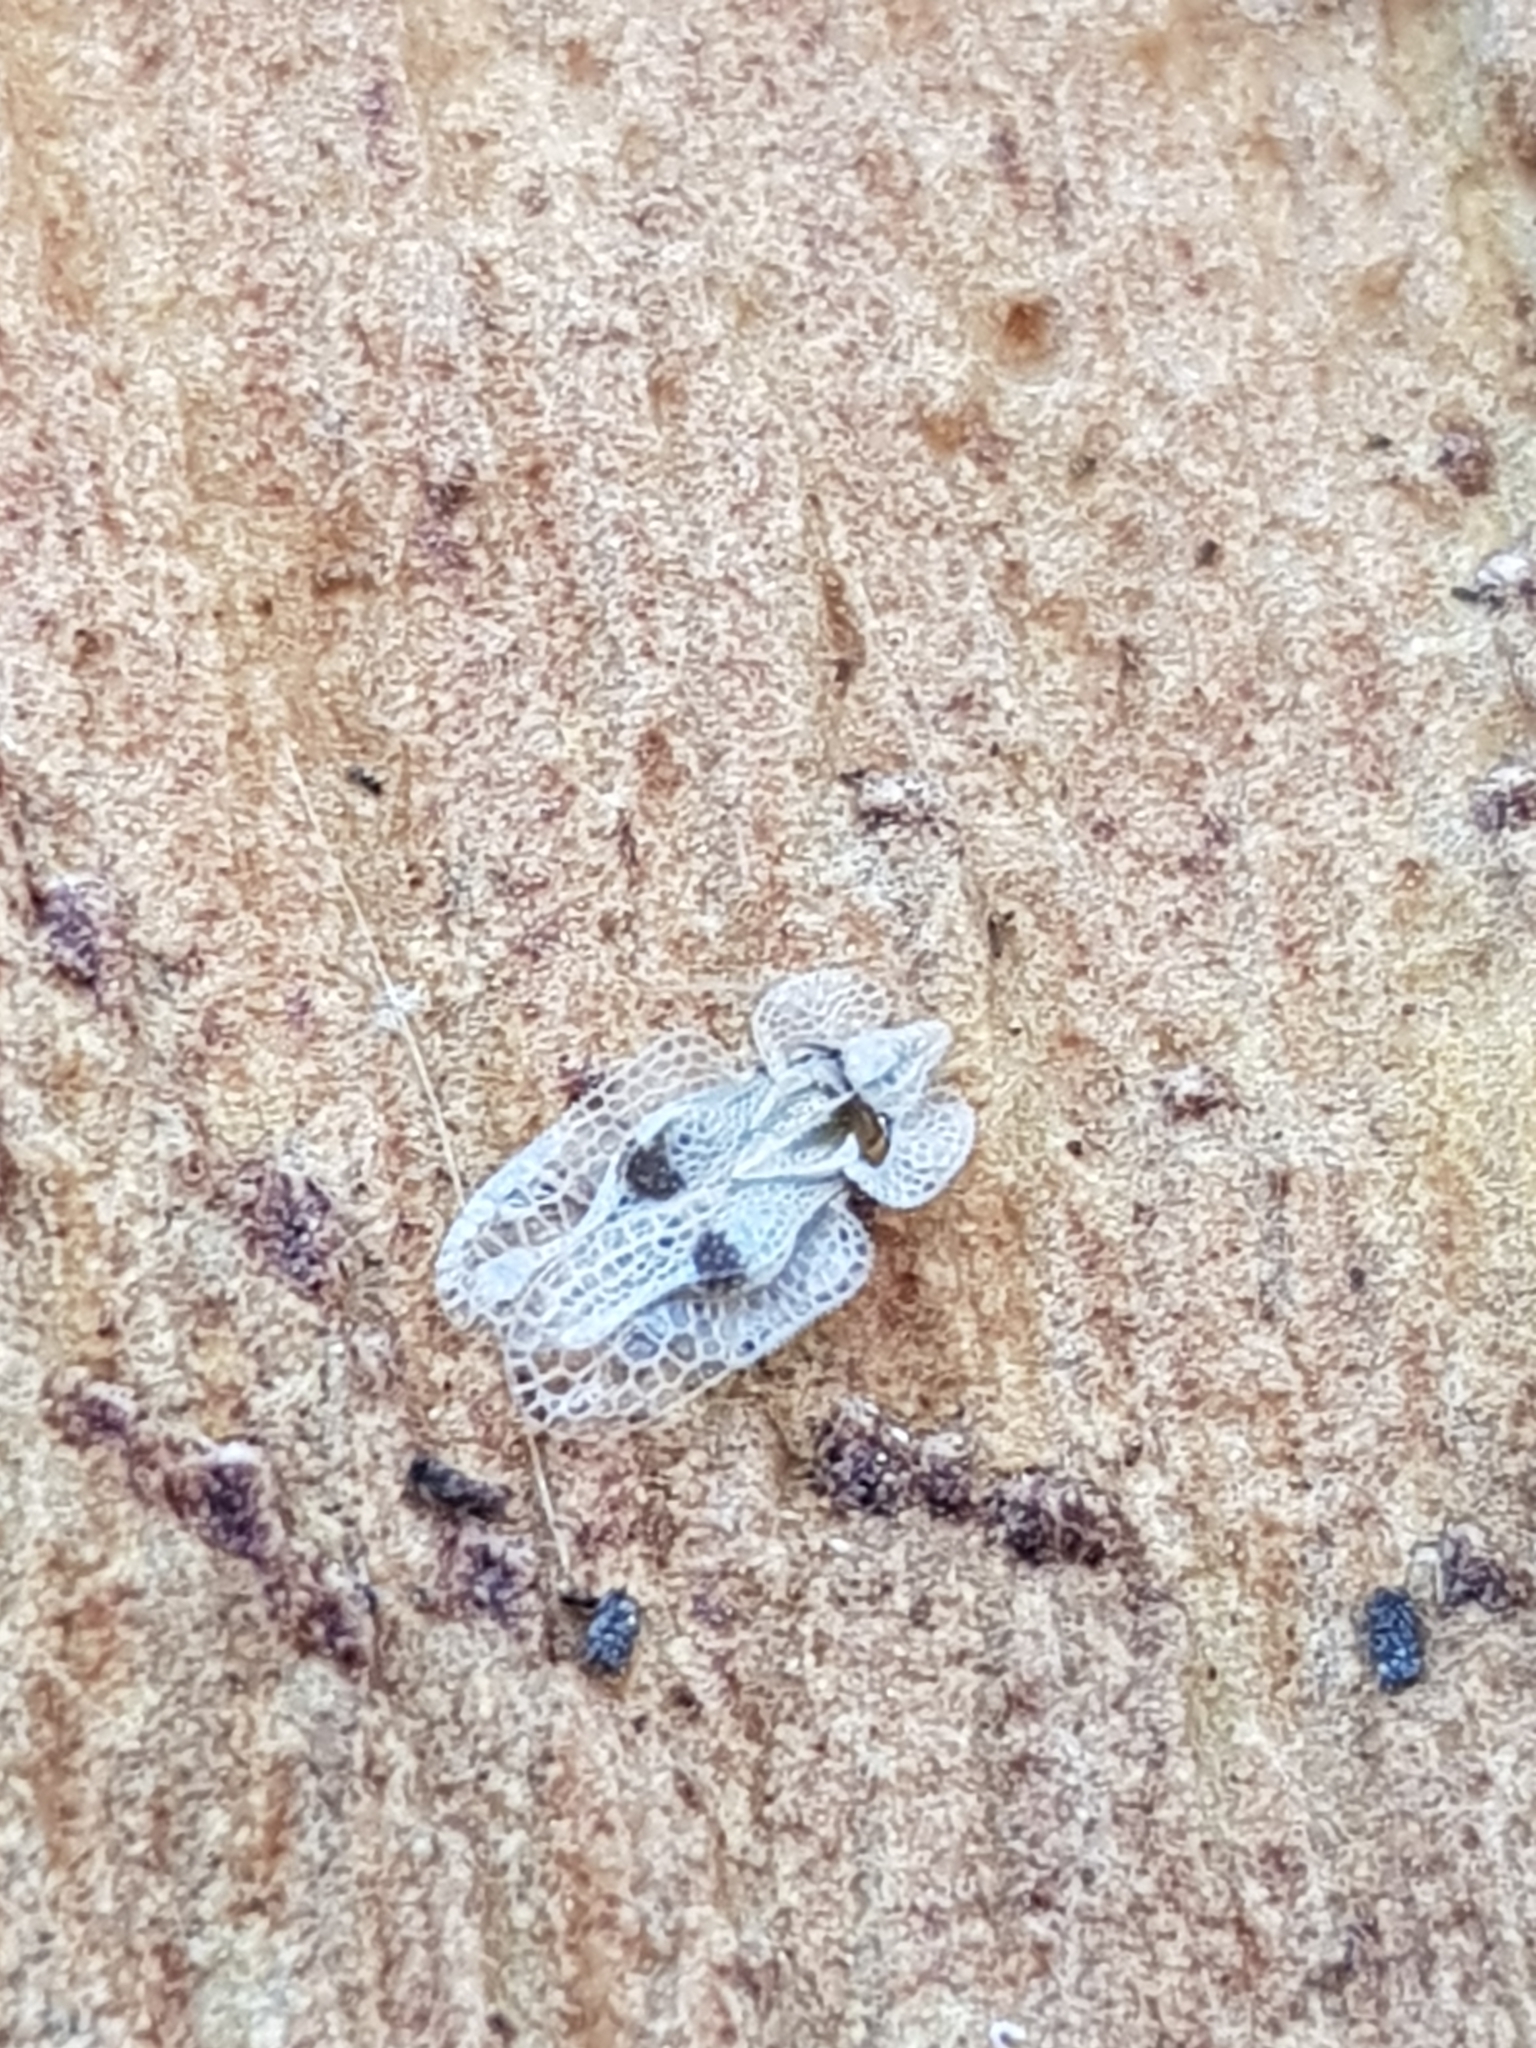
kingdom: Animalia
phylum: Arthropoda
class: Insecta
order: Hemiptera
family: Tingidae
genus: Corythucha
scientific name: Corythucha ciliata
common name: Sycamore lace bug
